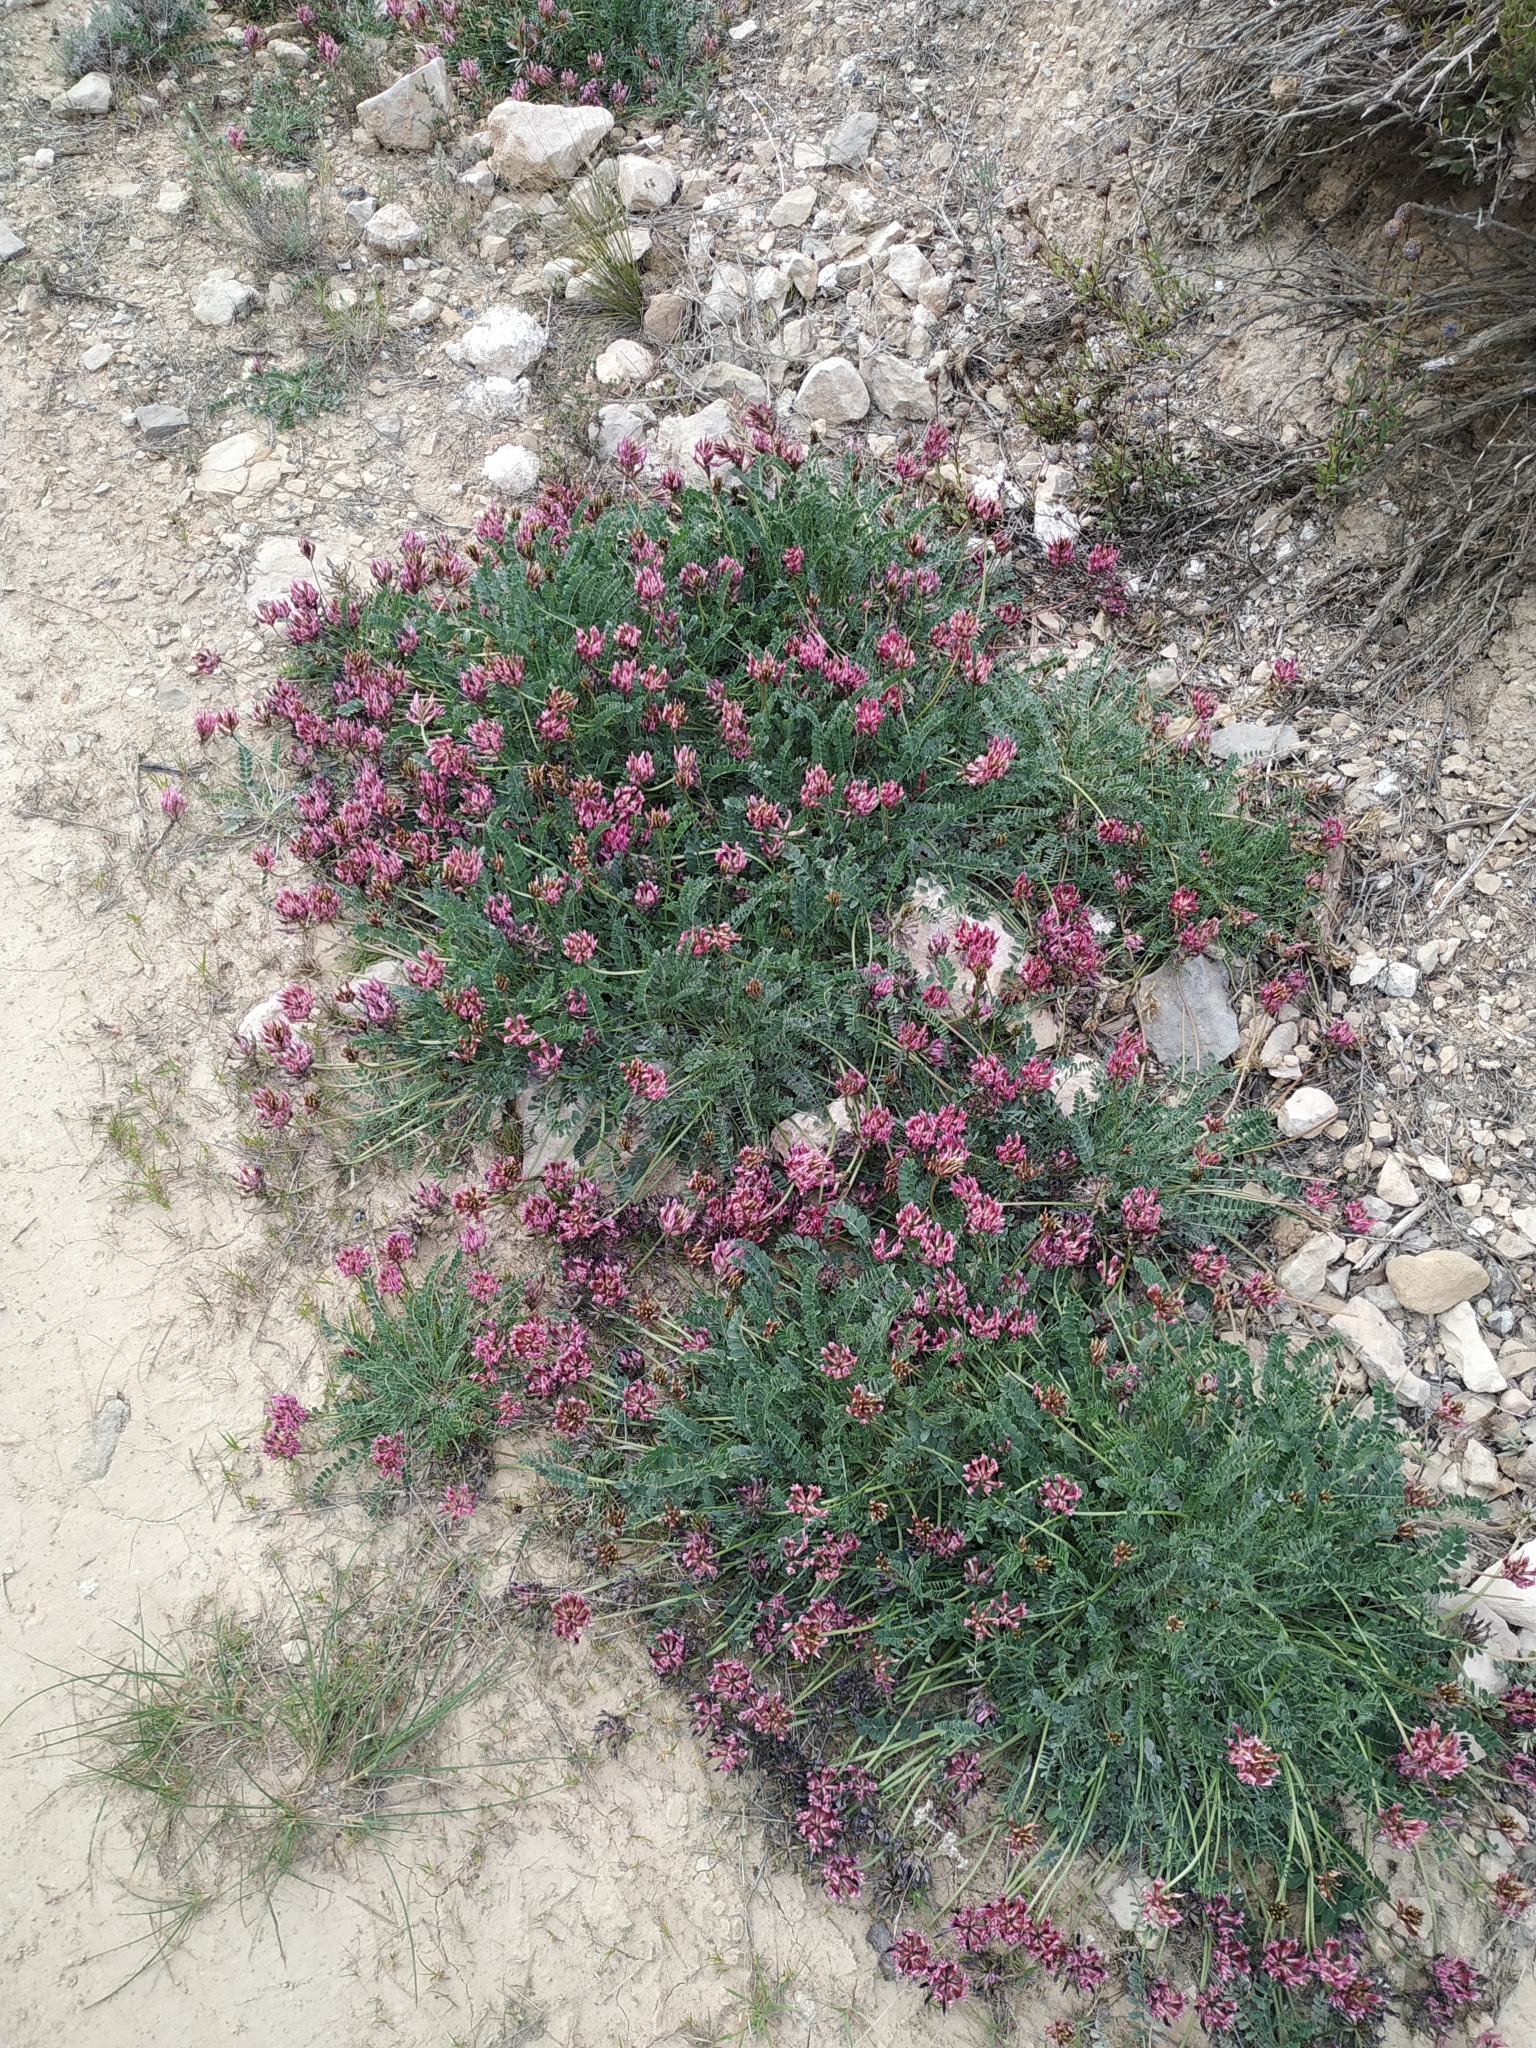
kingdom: Plantae
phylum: Tracheophyta
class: Magnoliopsida
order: Fabales
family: Fabaceae
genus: Astragalus
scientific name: Astragalus incanus
